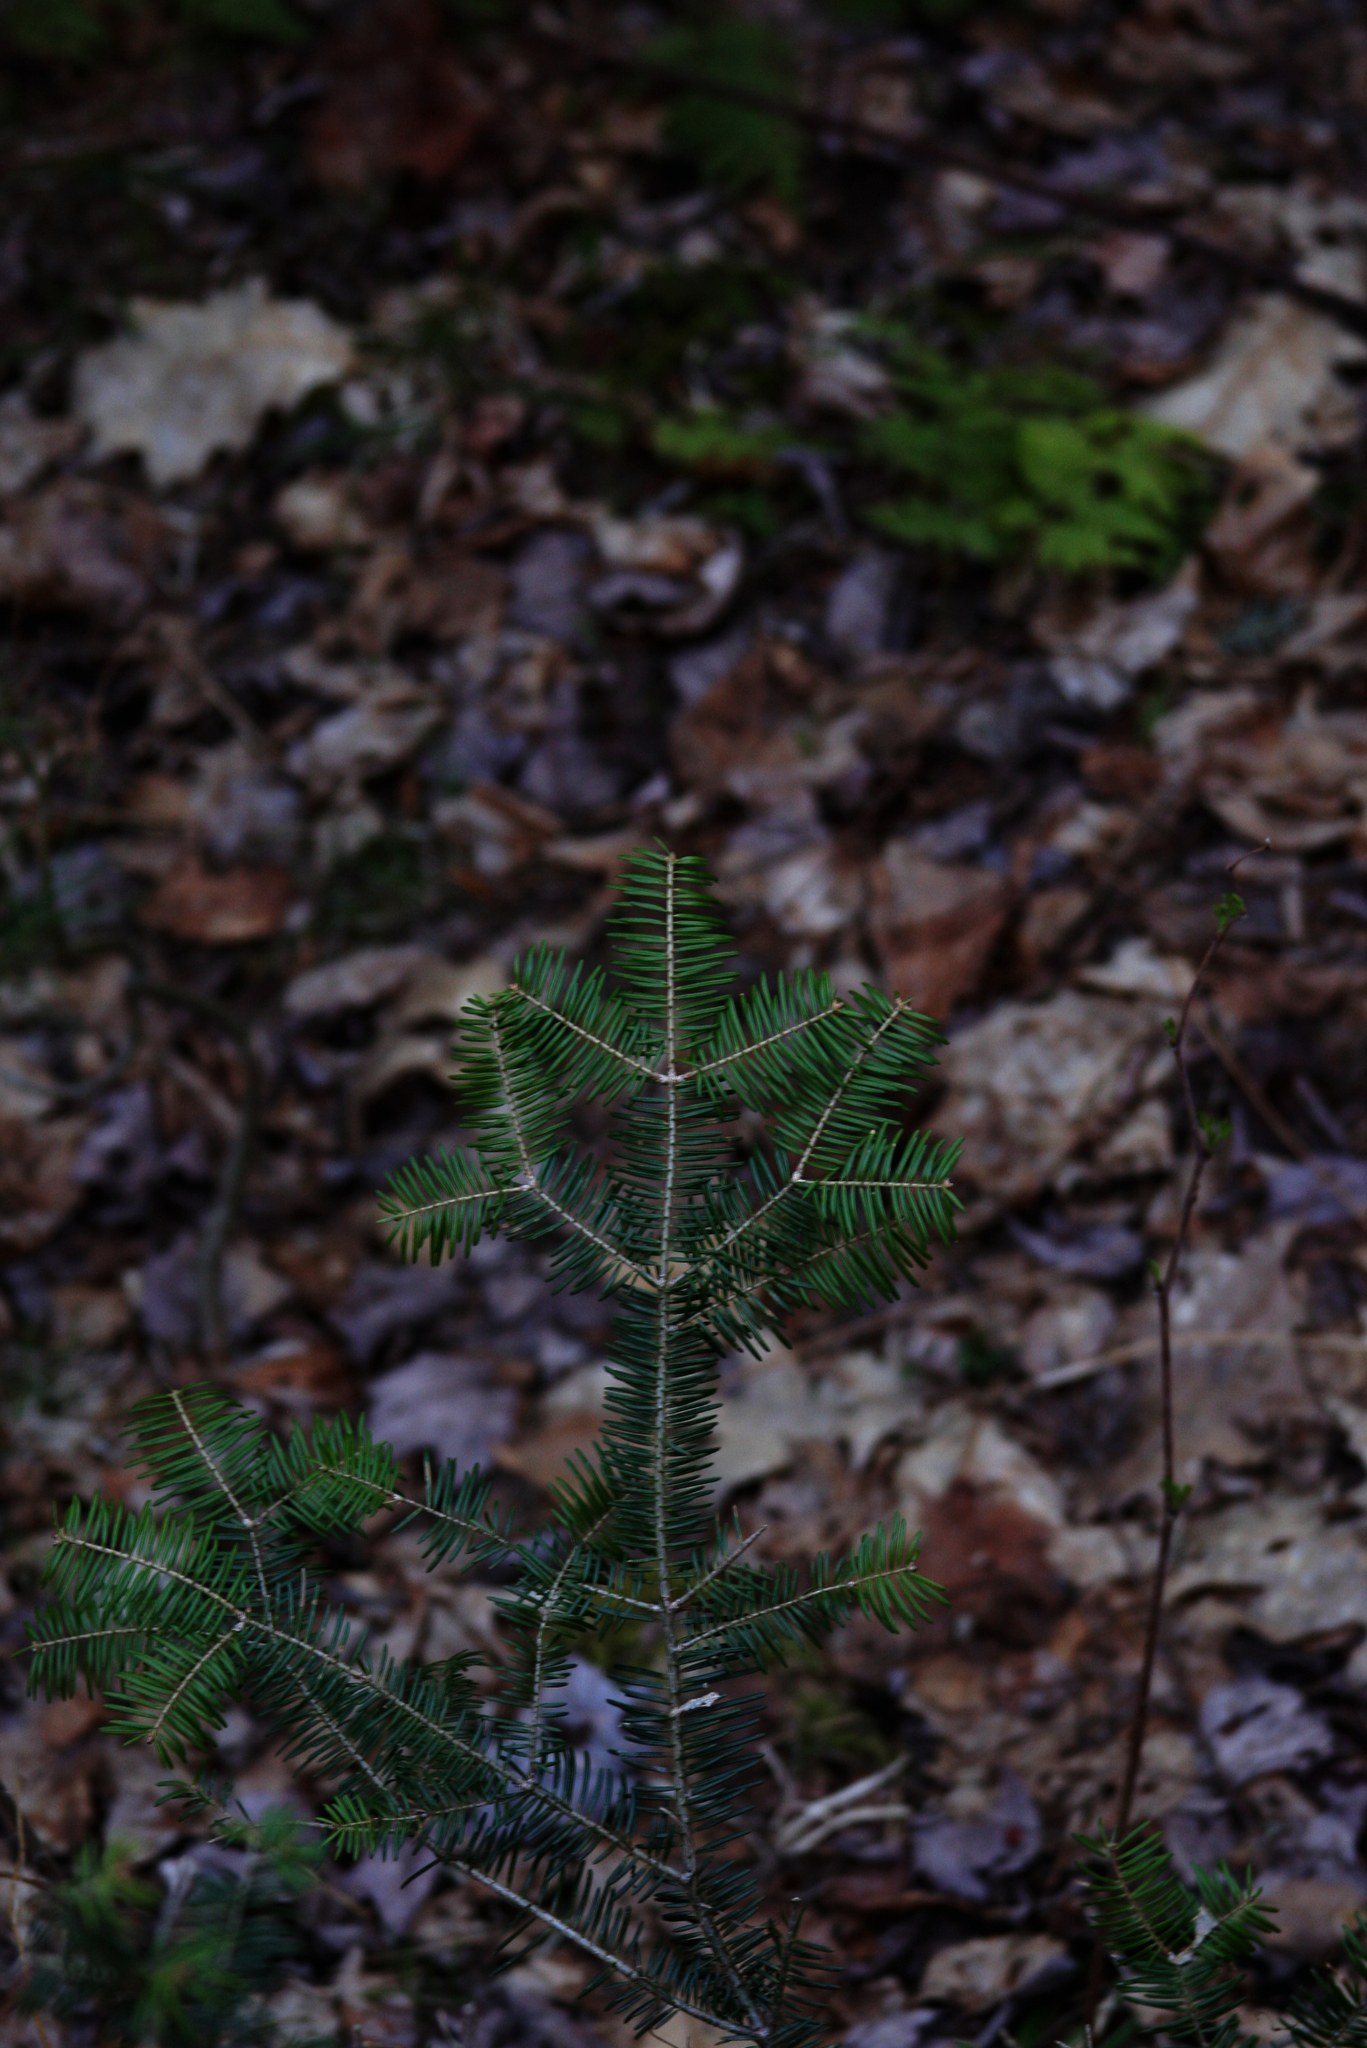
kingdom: Plantae
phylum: Tracheophyta
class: Pinopsida
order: Pinales
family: Pinaceae
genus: Abies
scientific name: Abies balsamea
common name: Balsam fir
